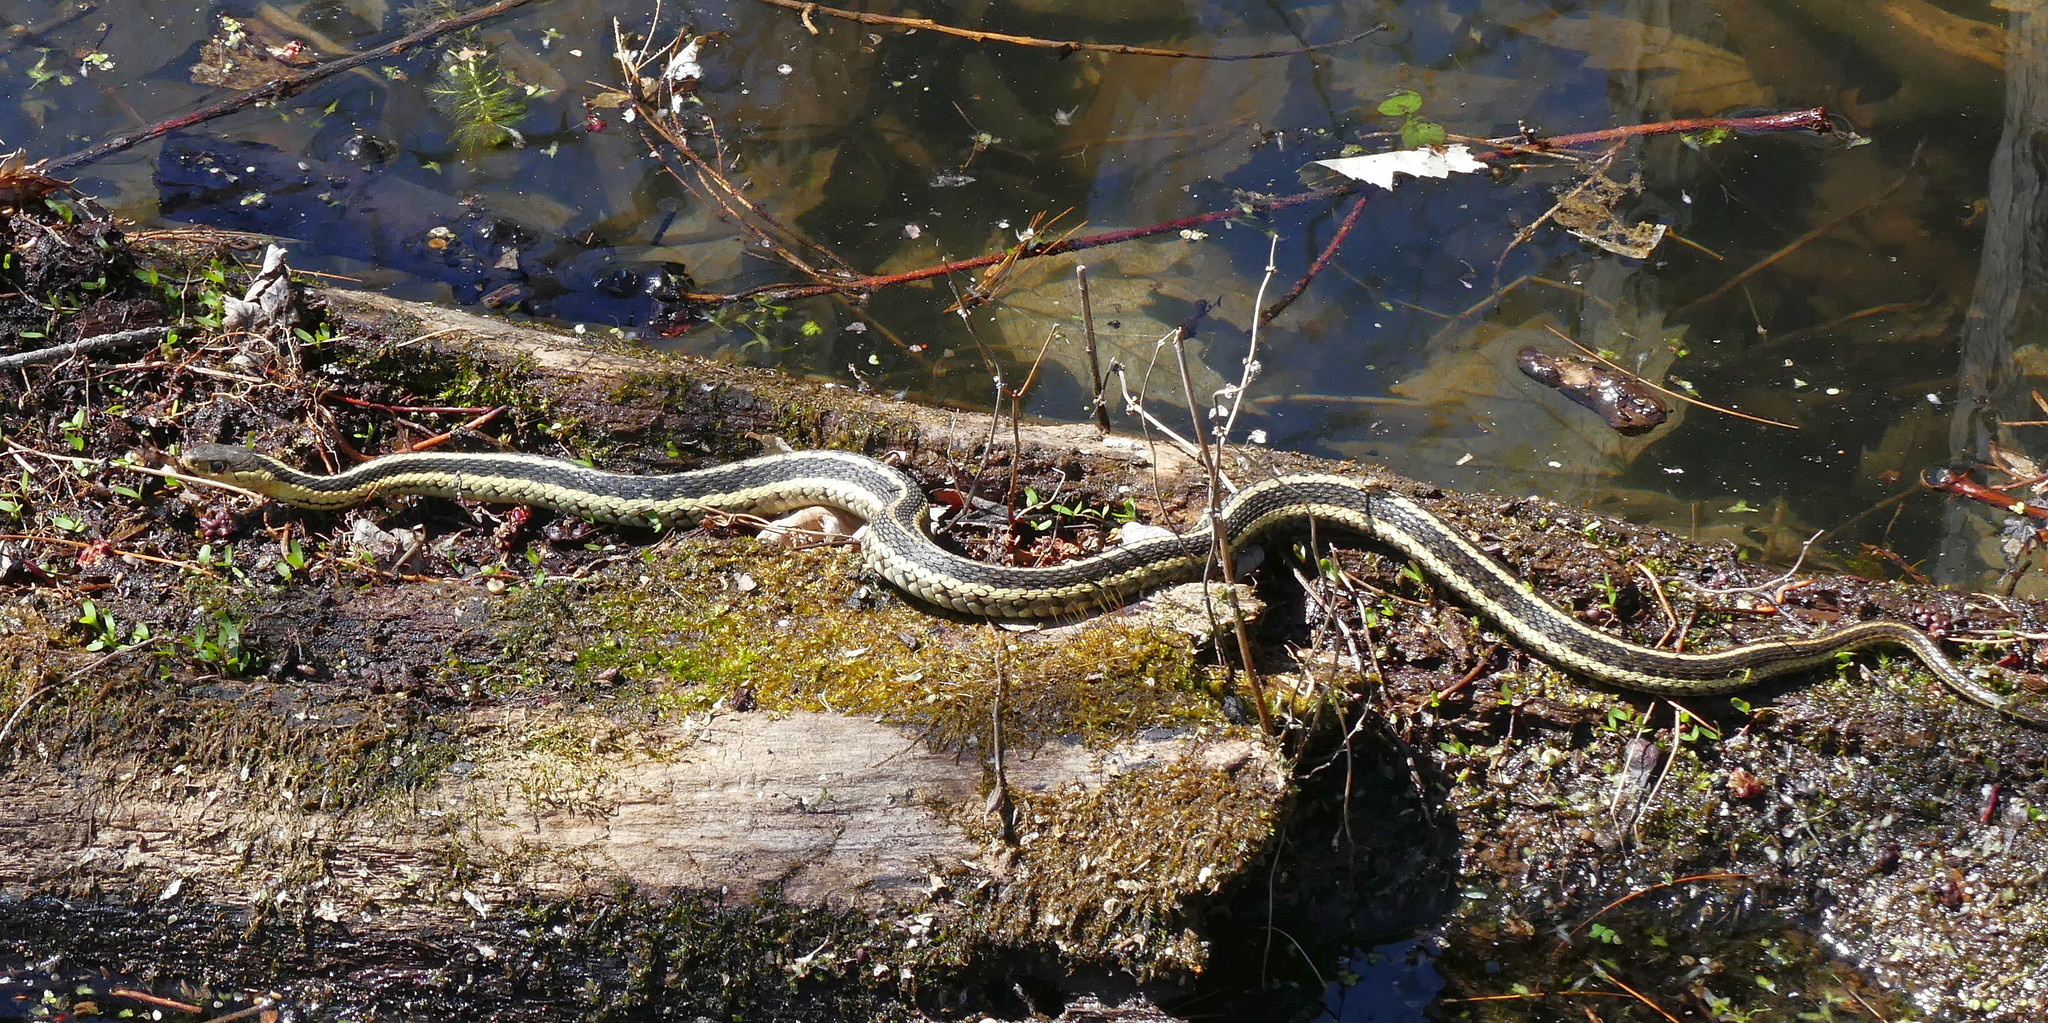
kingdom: Animalia
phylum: Chordata
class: Squamata
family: Colubridae
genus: Thamnophis
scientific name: Thamnophis sirtalis
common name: Common garter snake
